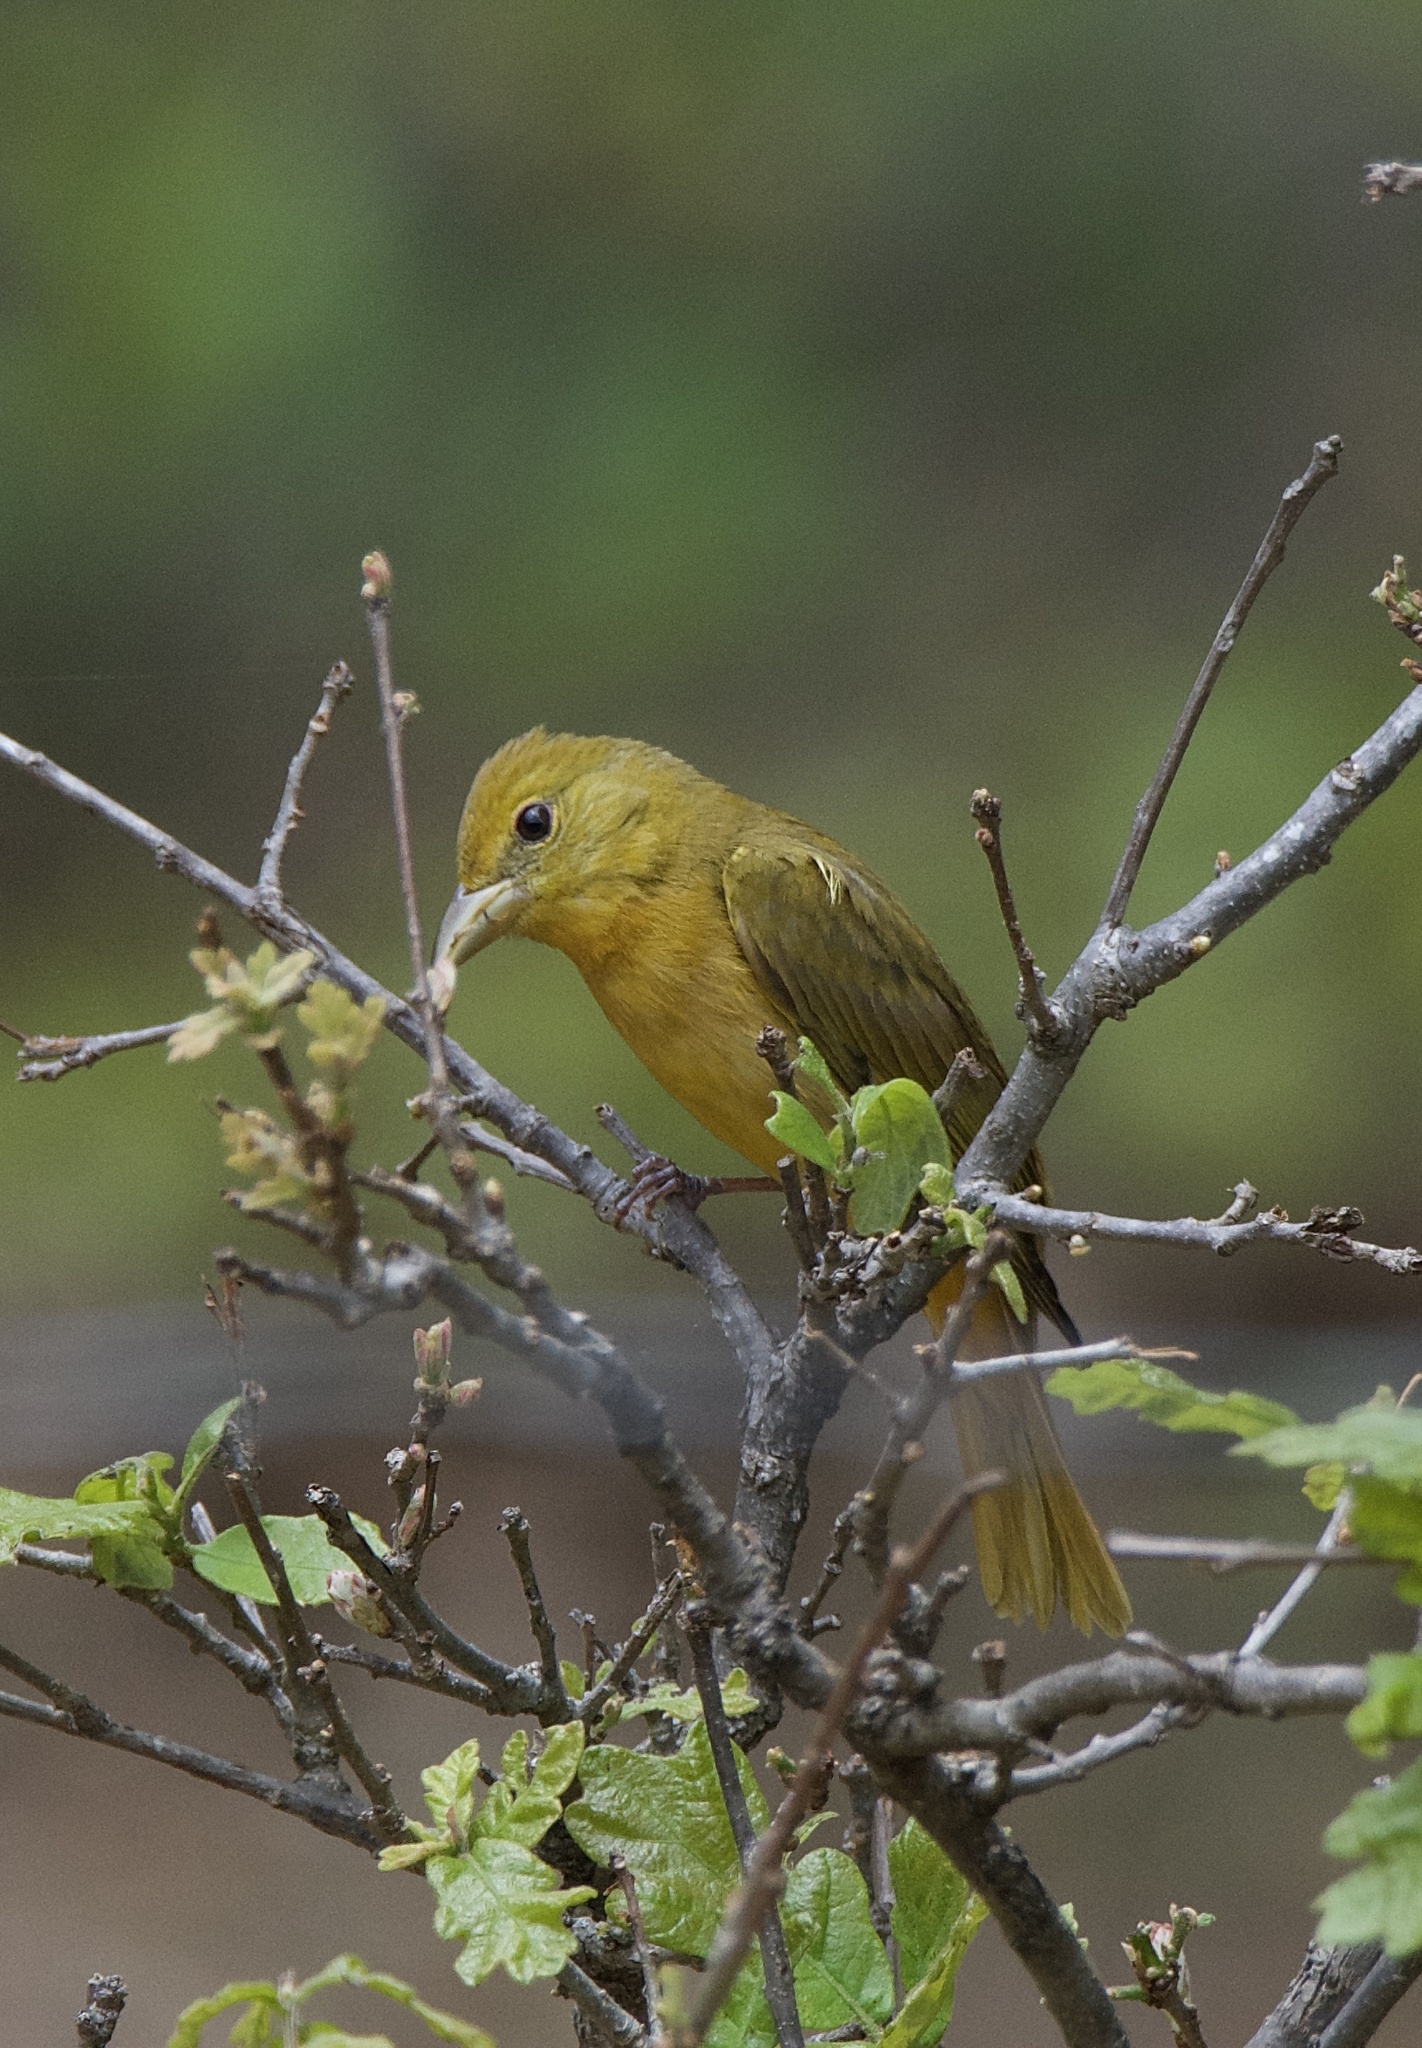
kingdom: Animalia
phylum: Chordata
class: Aves
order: Passeriformes
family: Cardinalidae
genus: Piranga
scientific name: Piranga rubra
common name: Summer tanager
